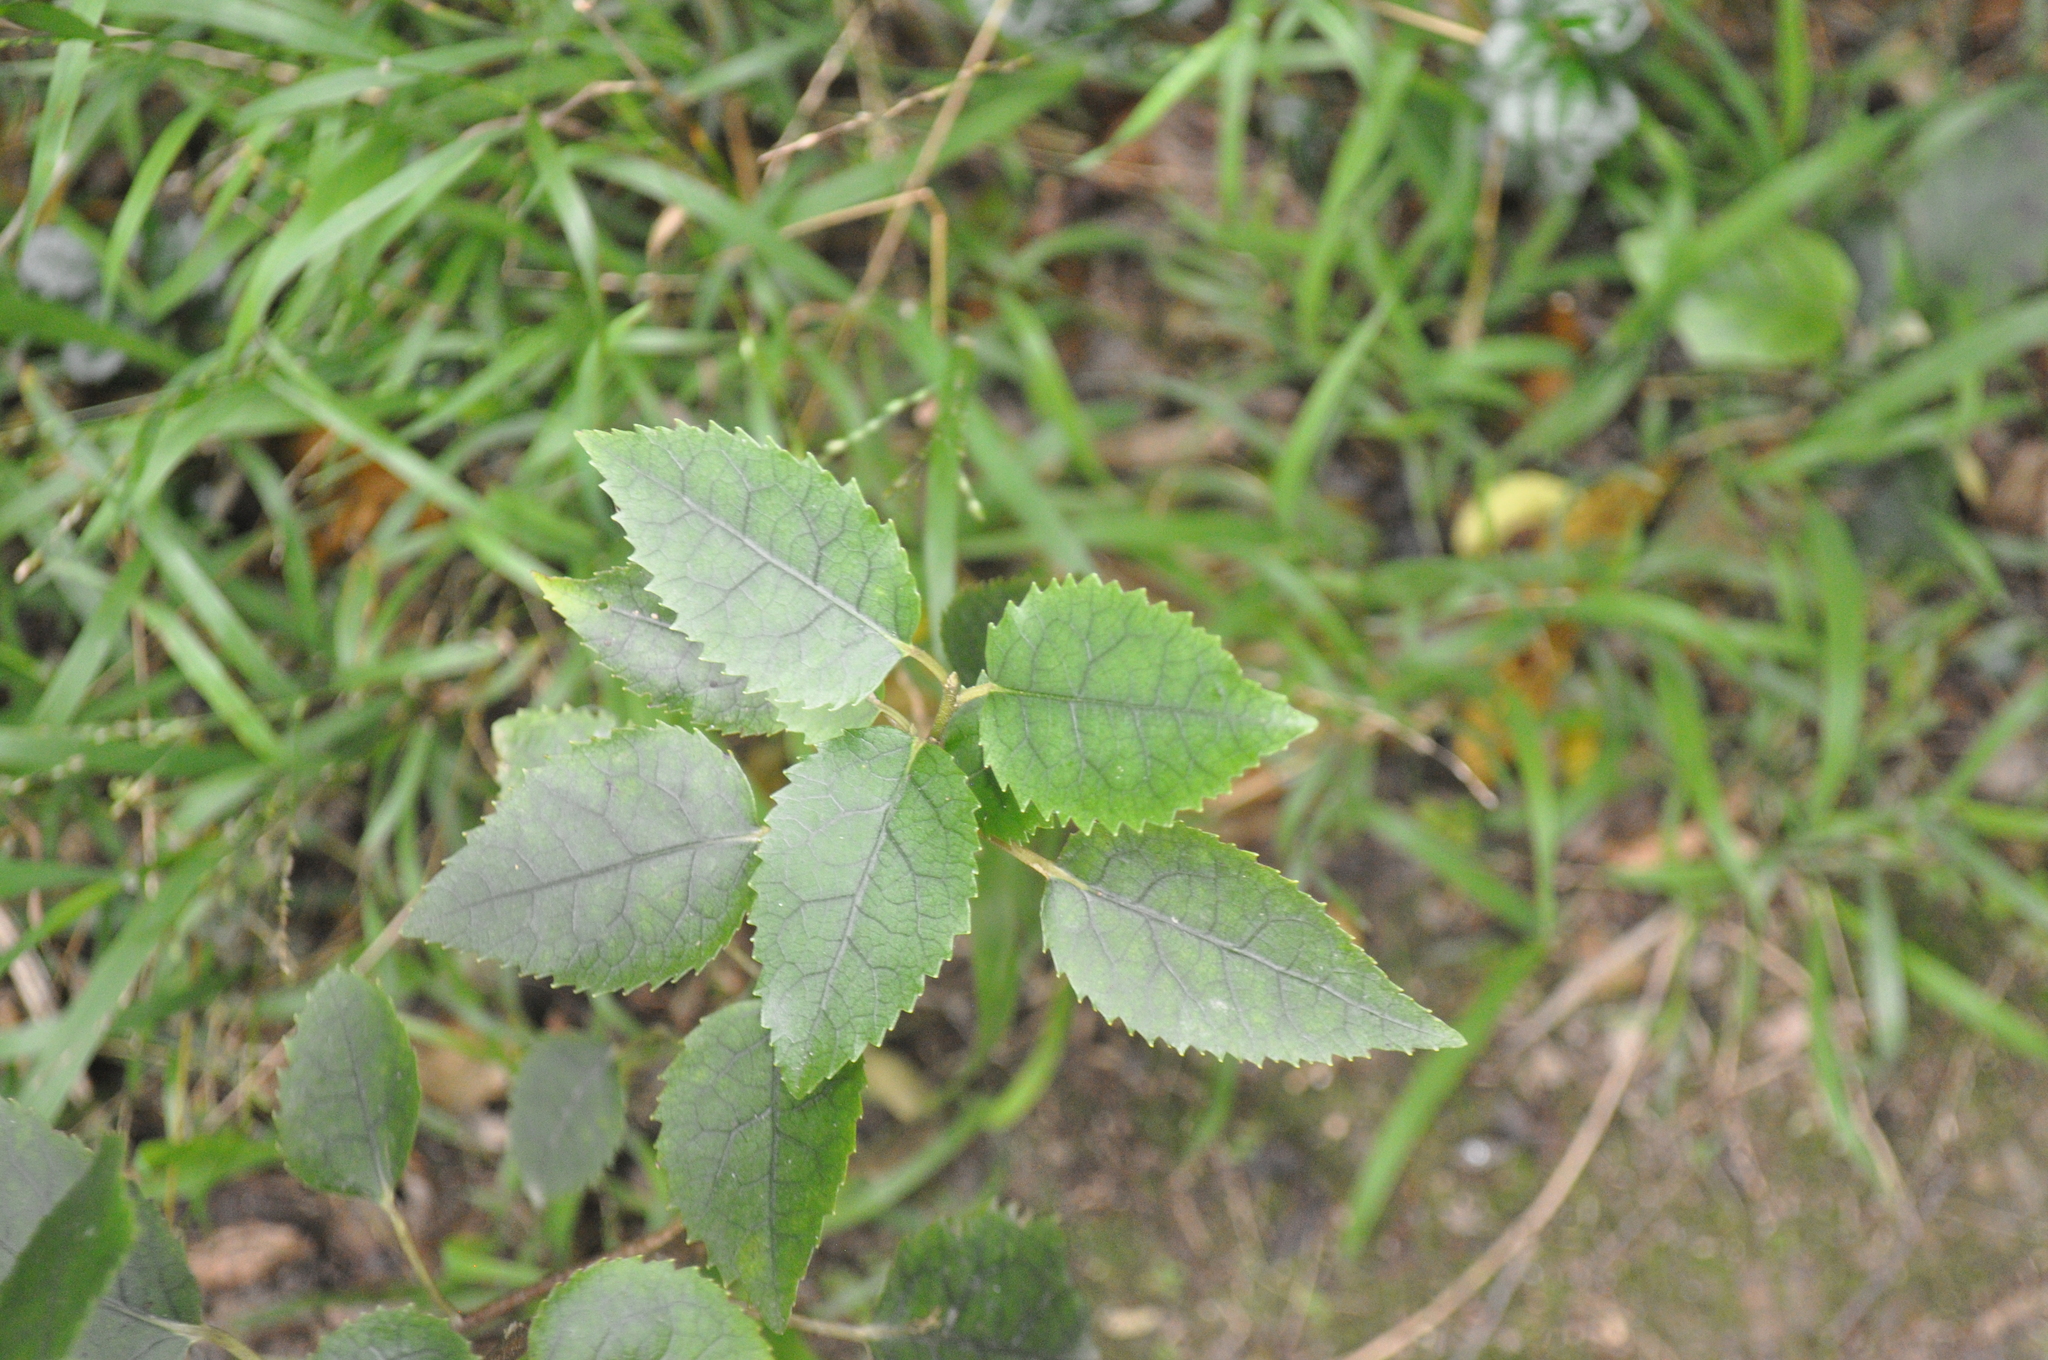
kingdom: Plantae
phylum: Tracheophyta
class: Magnoliopsida
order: Malvales
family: Malvaceae
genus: Hoheria
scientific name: Hoheria populnea
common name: Lacebark
